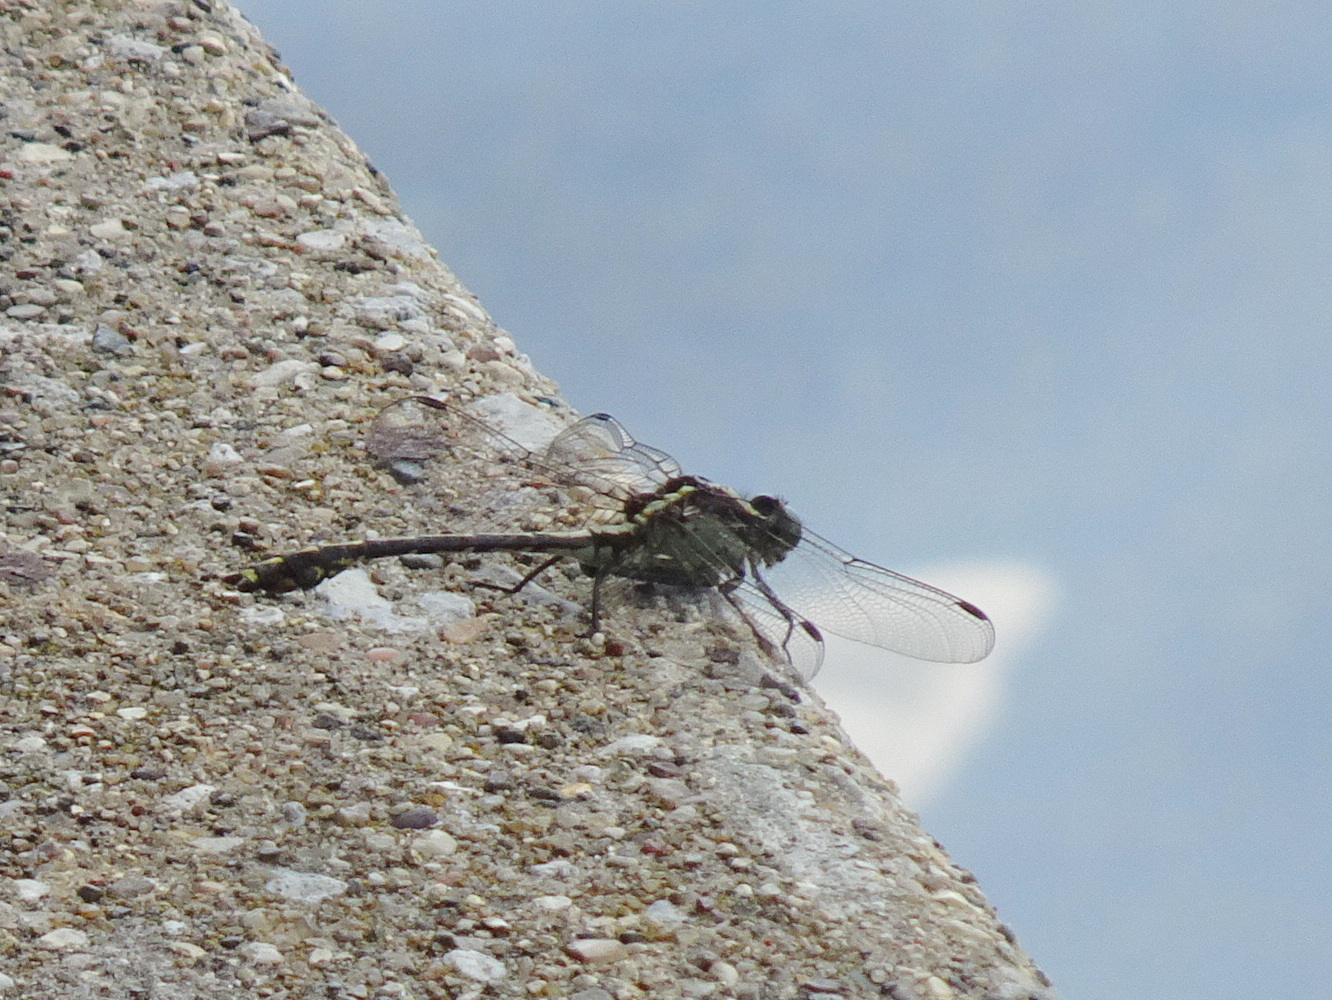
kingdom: Animalia
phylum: Arthropoda
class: Insecta
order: Odonata
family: Gomphidae
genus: Dromogomphus
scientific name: Dromogomphus spinosus
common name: Black-shouldered spinyleg
